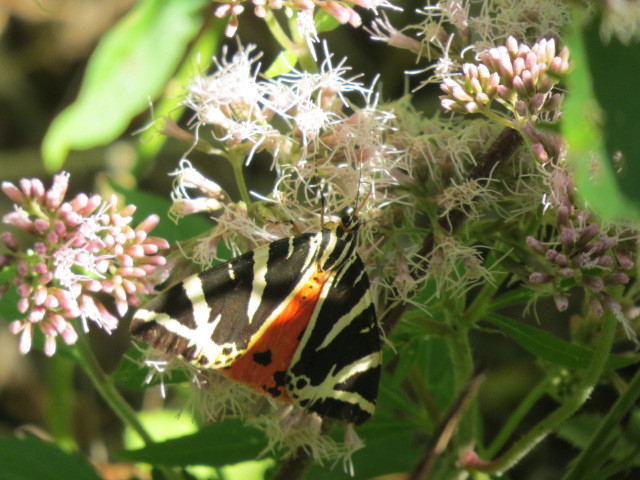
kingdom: Animalia
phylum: Arthropoda
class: Insecta
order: Lepidoptera
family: Erebidae
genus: Euplagia
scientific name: Euplagia quadripunctaria
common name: Jersey tiger
